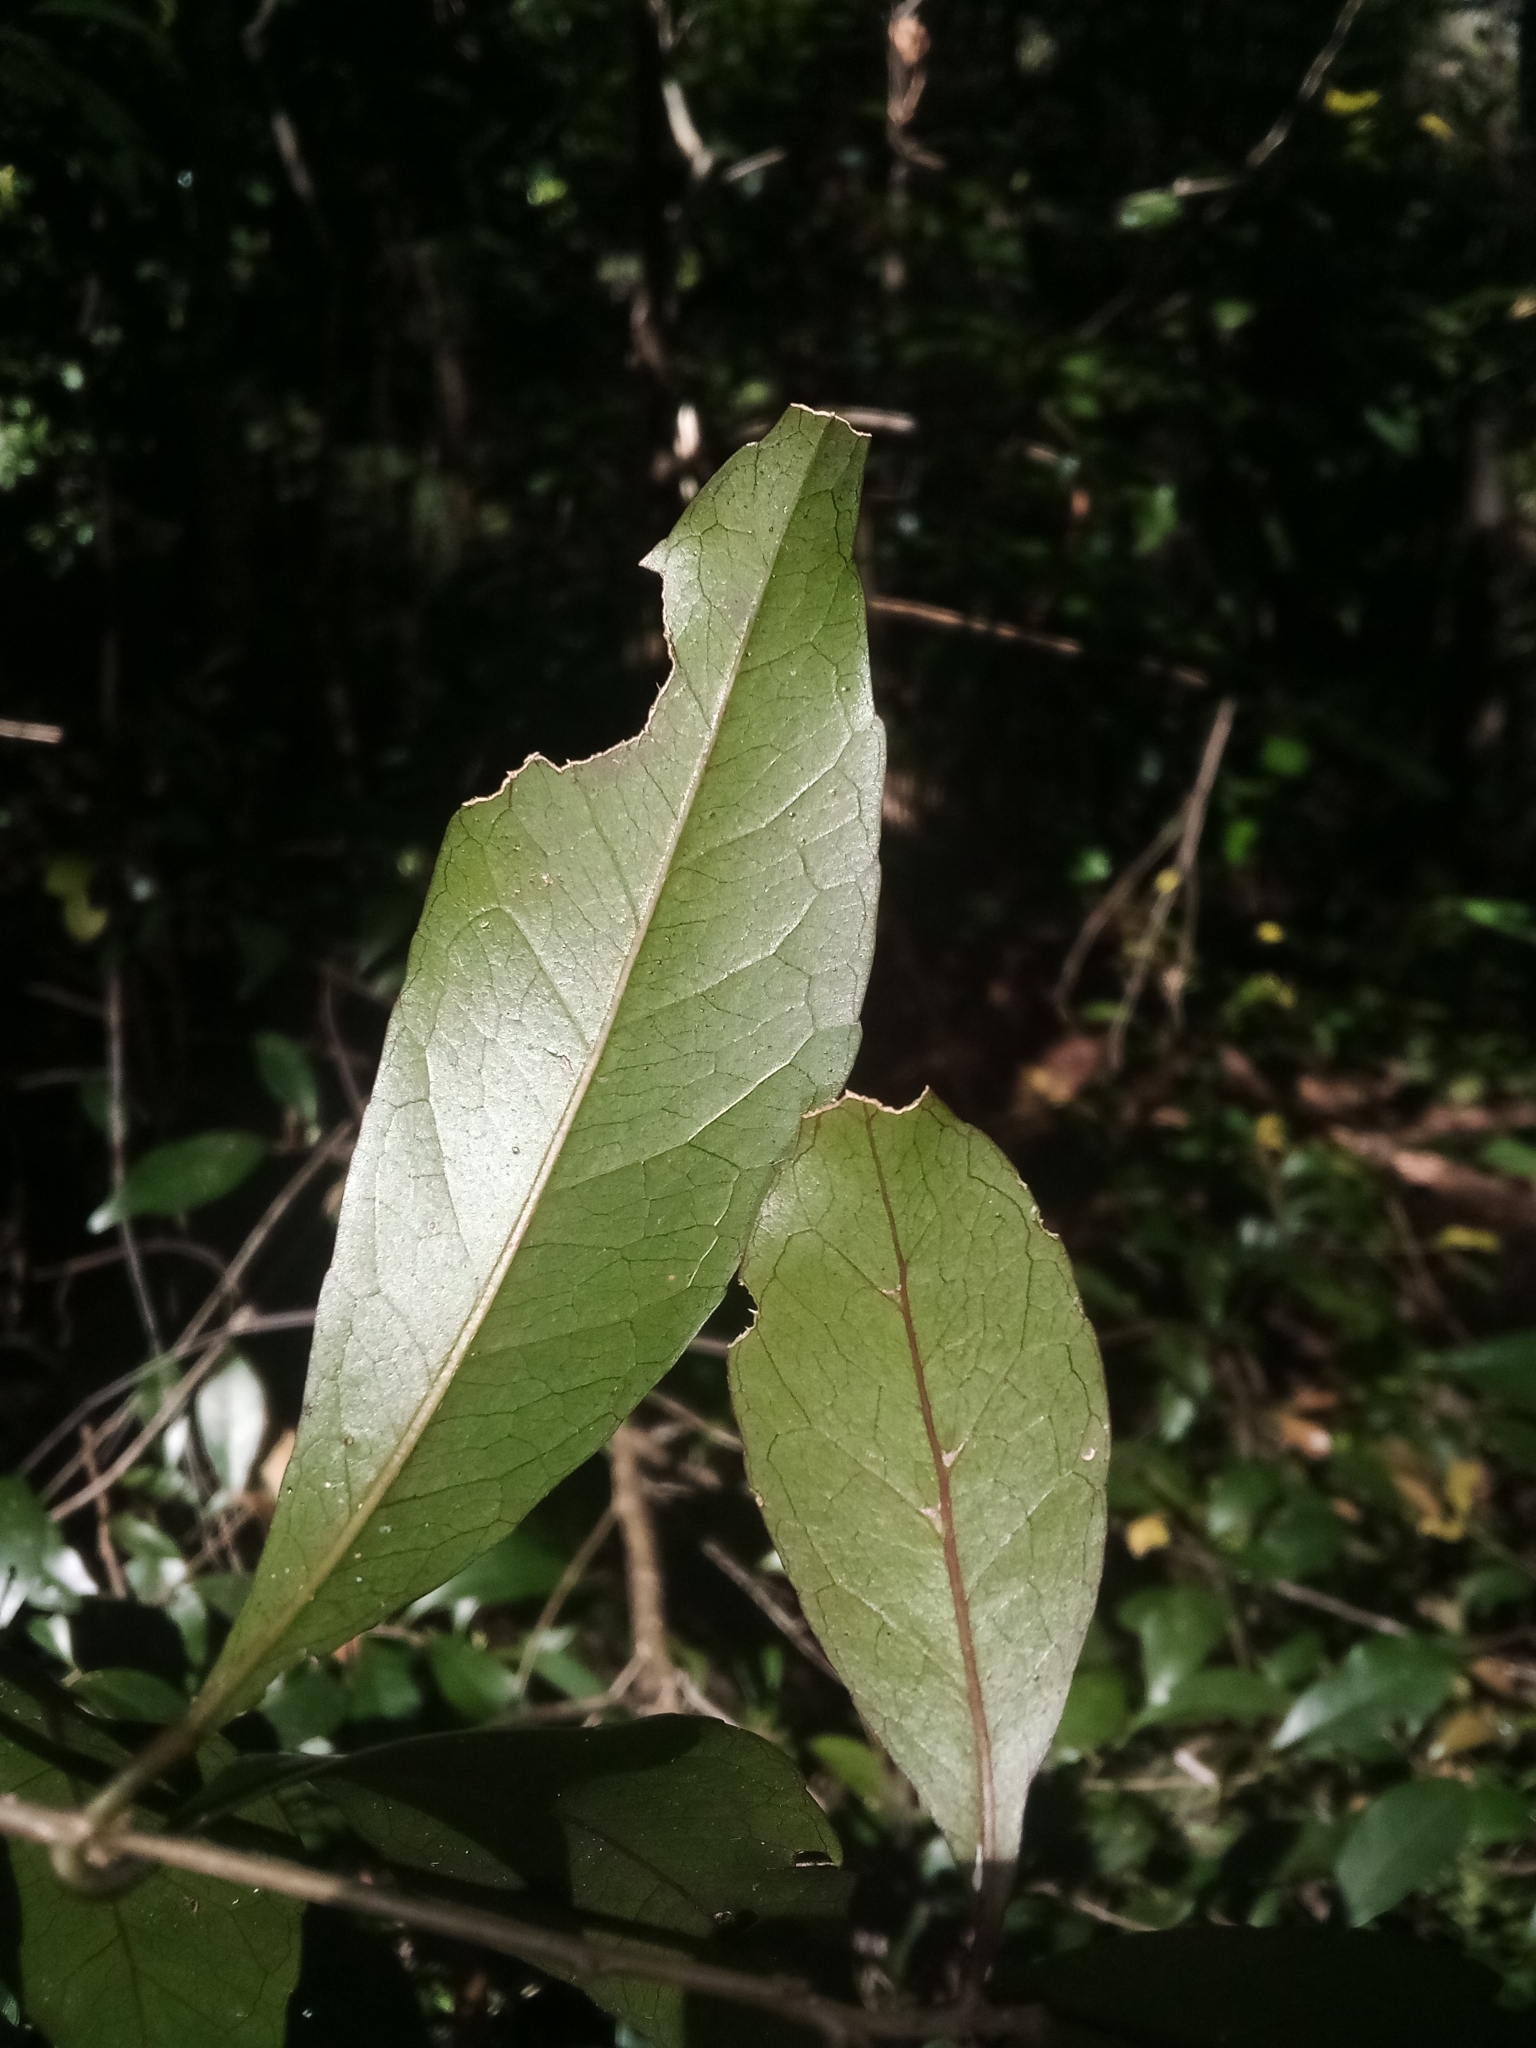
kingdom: Plantae
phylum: Tracheophyta
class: Magnoliopsida
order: Oxalidales
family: Elaeocarpaceae
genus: Elaeocarpus
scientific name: Elaeocarpus obovatus
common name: Freckled oliveberry
